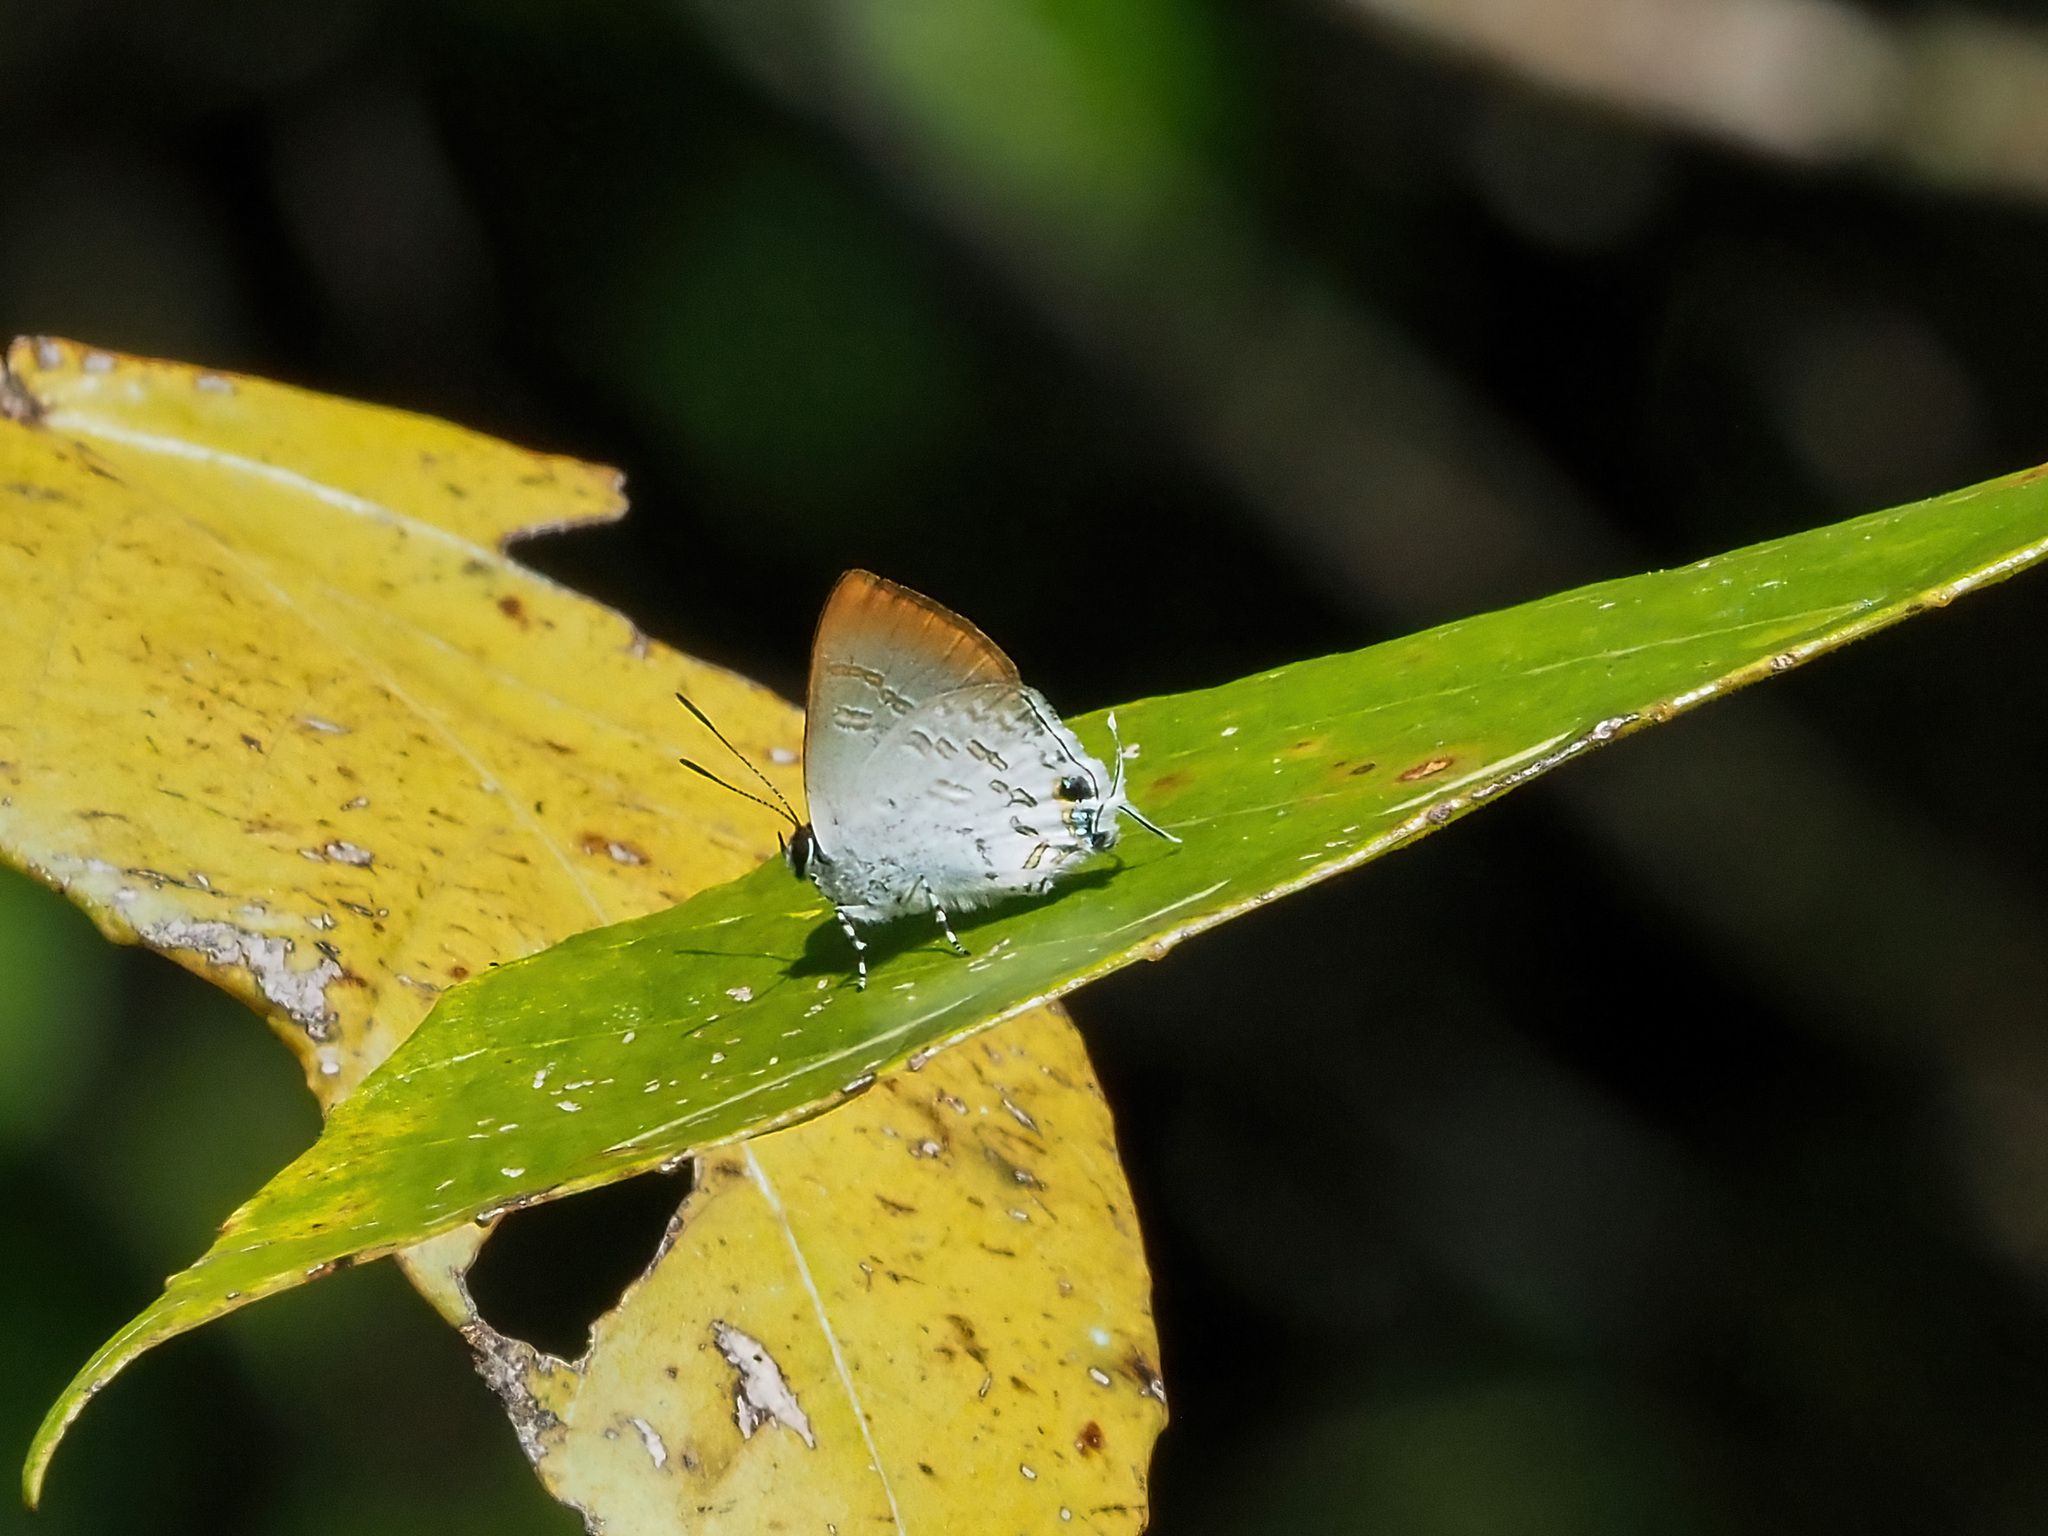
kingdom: Animalia
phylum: Arthropoda
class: Insecta
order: Lepidoptera
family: Lycaenidae
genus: Sinthusa
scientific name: Sinthusa privata
